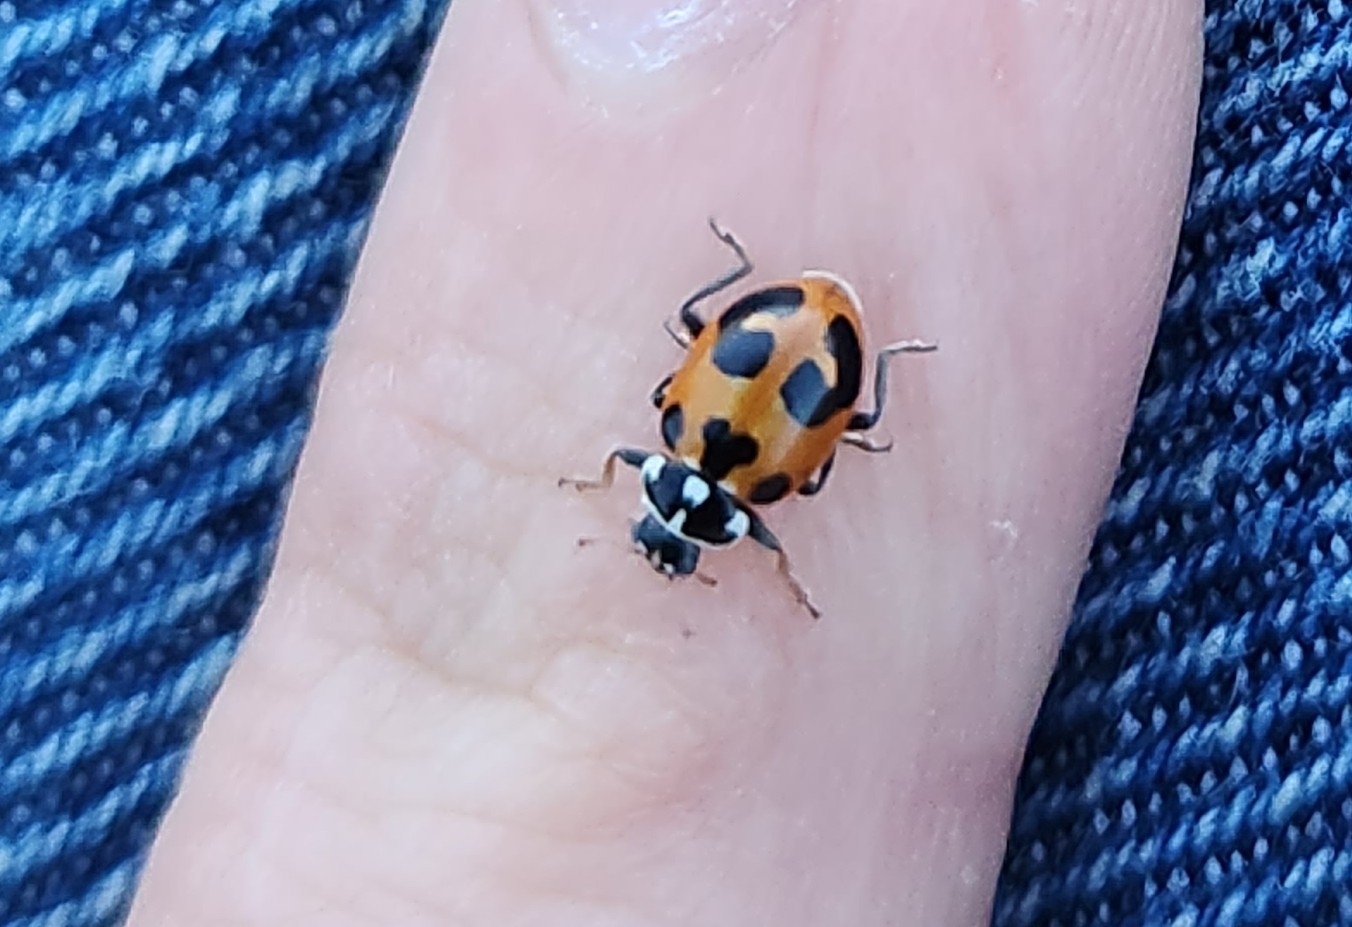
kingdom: Animalia
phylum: Arthropoda
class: Insecta
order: Coleoptera
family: Coccinellidae
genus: Hippodamia
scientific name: Hippodamia parenthesis
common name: Parenthesis lady beetle
